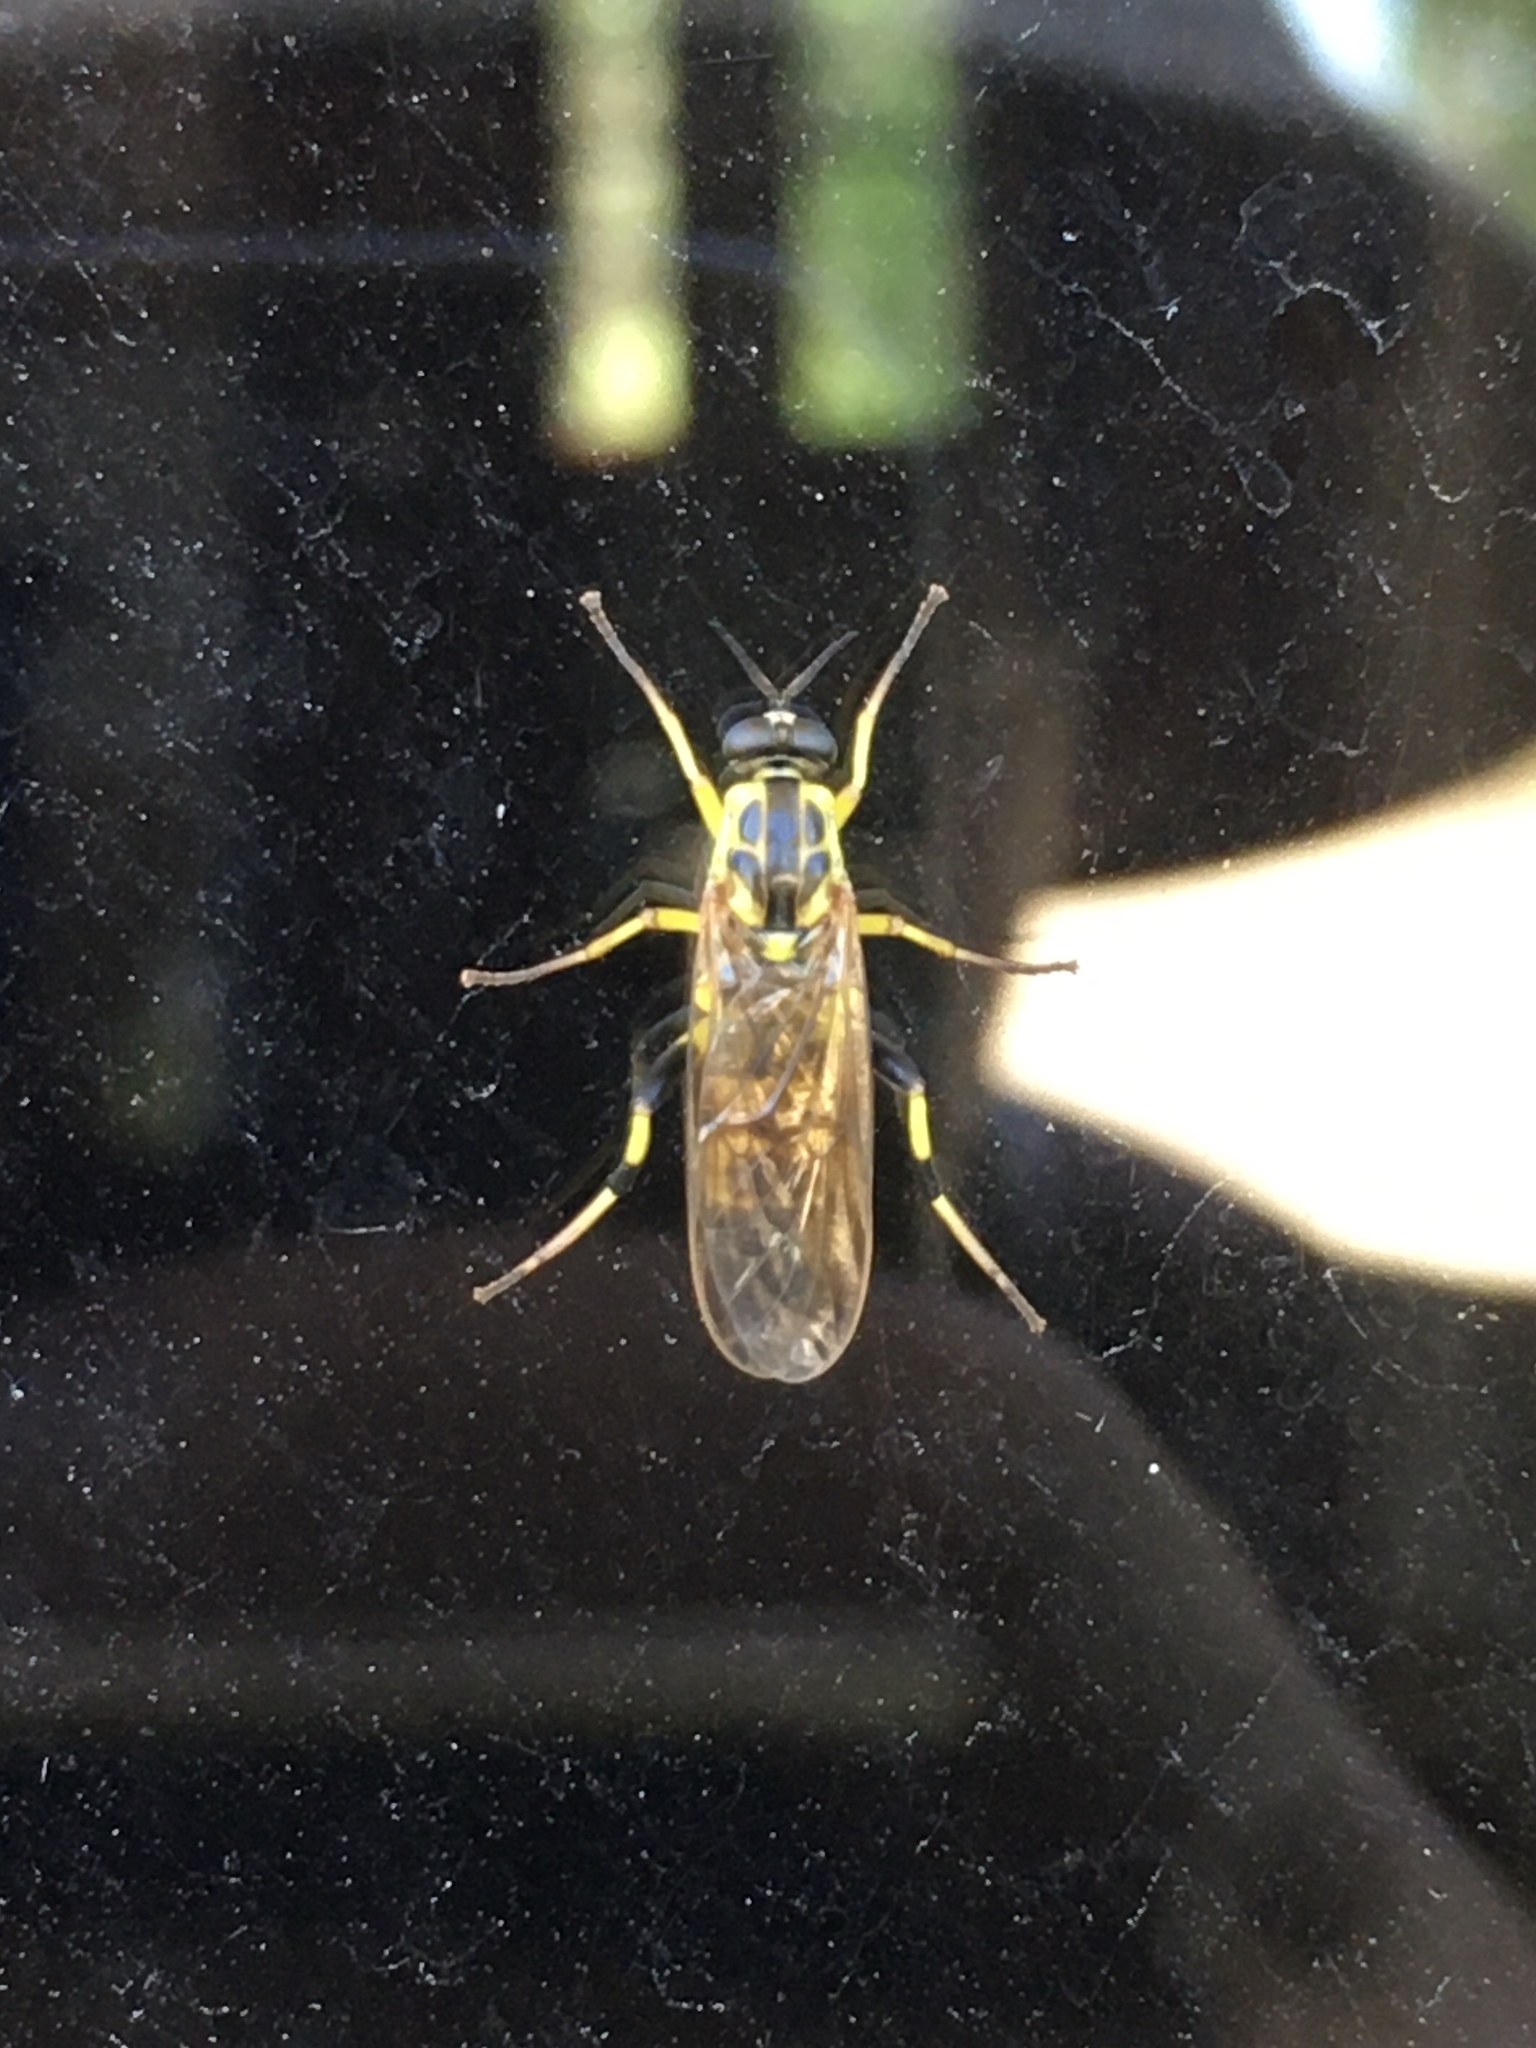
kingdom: Animalia
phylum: Arthropoda
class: Insecta
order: Diptera
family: Xylomyidae
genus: Xylomya
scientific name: Xylomya terminalis
